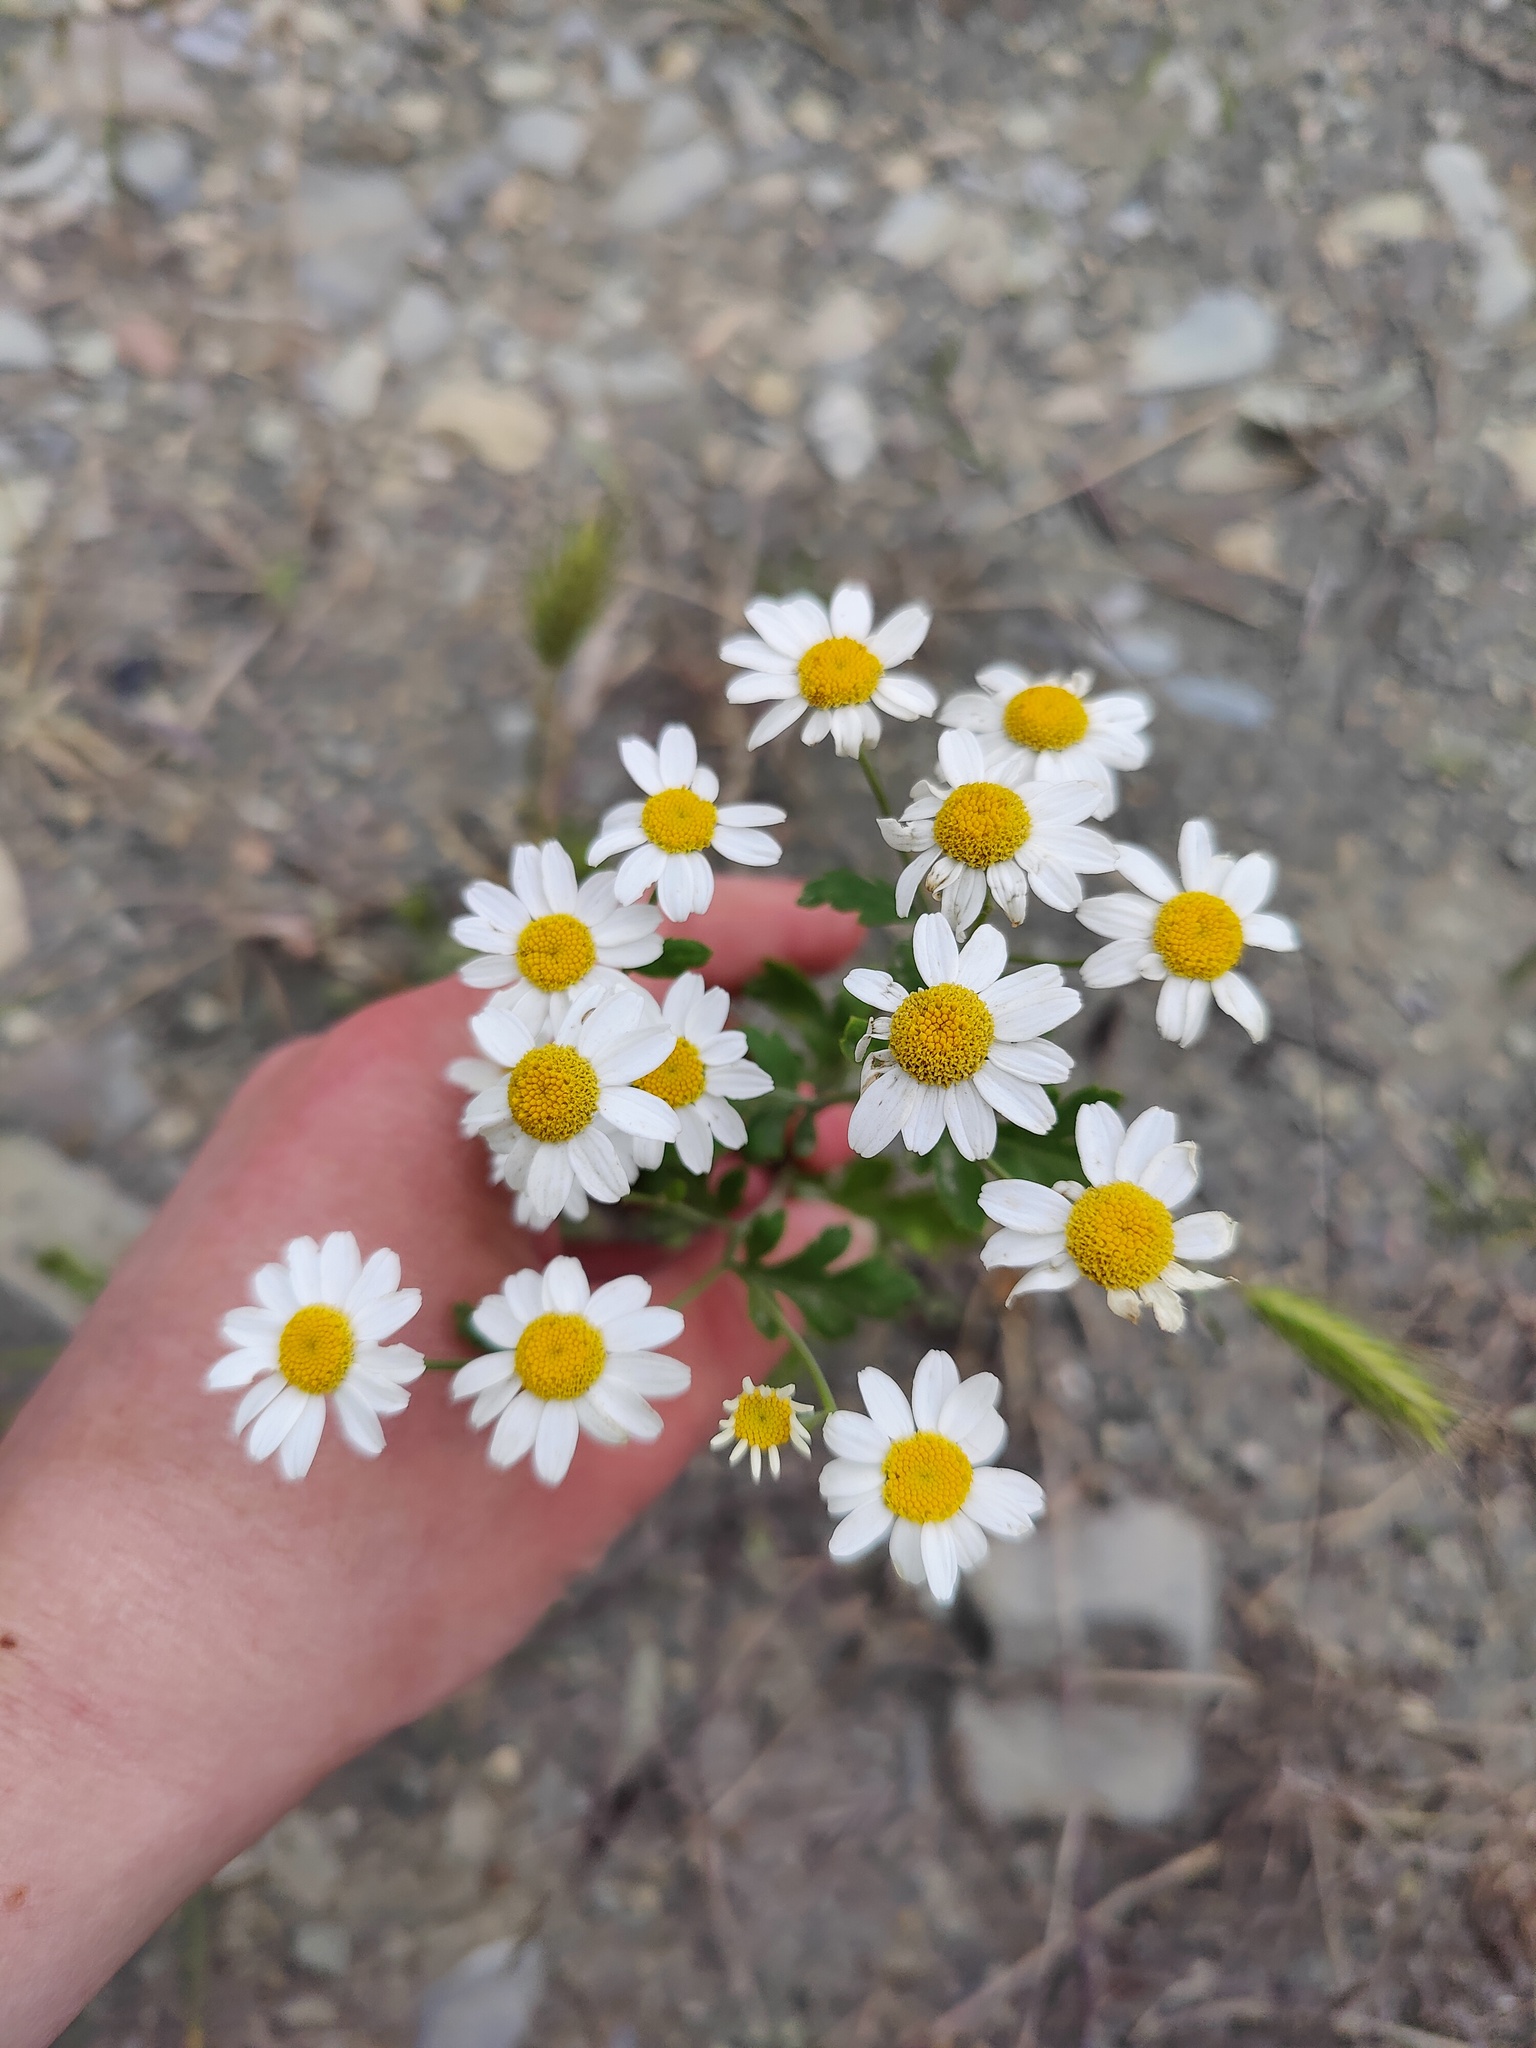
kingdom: Plantae
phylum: Tracheophyta
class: Magnoliopsida
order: Asterales
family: Asteraceae
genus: Tanacetum
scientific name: Tanacetum partheniifolium
